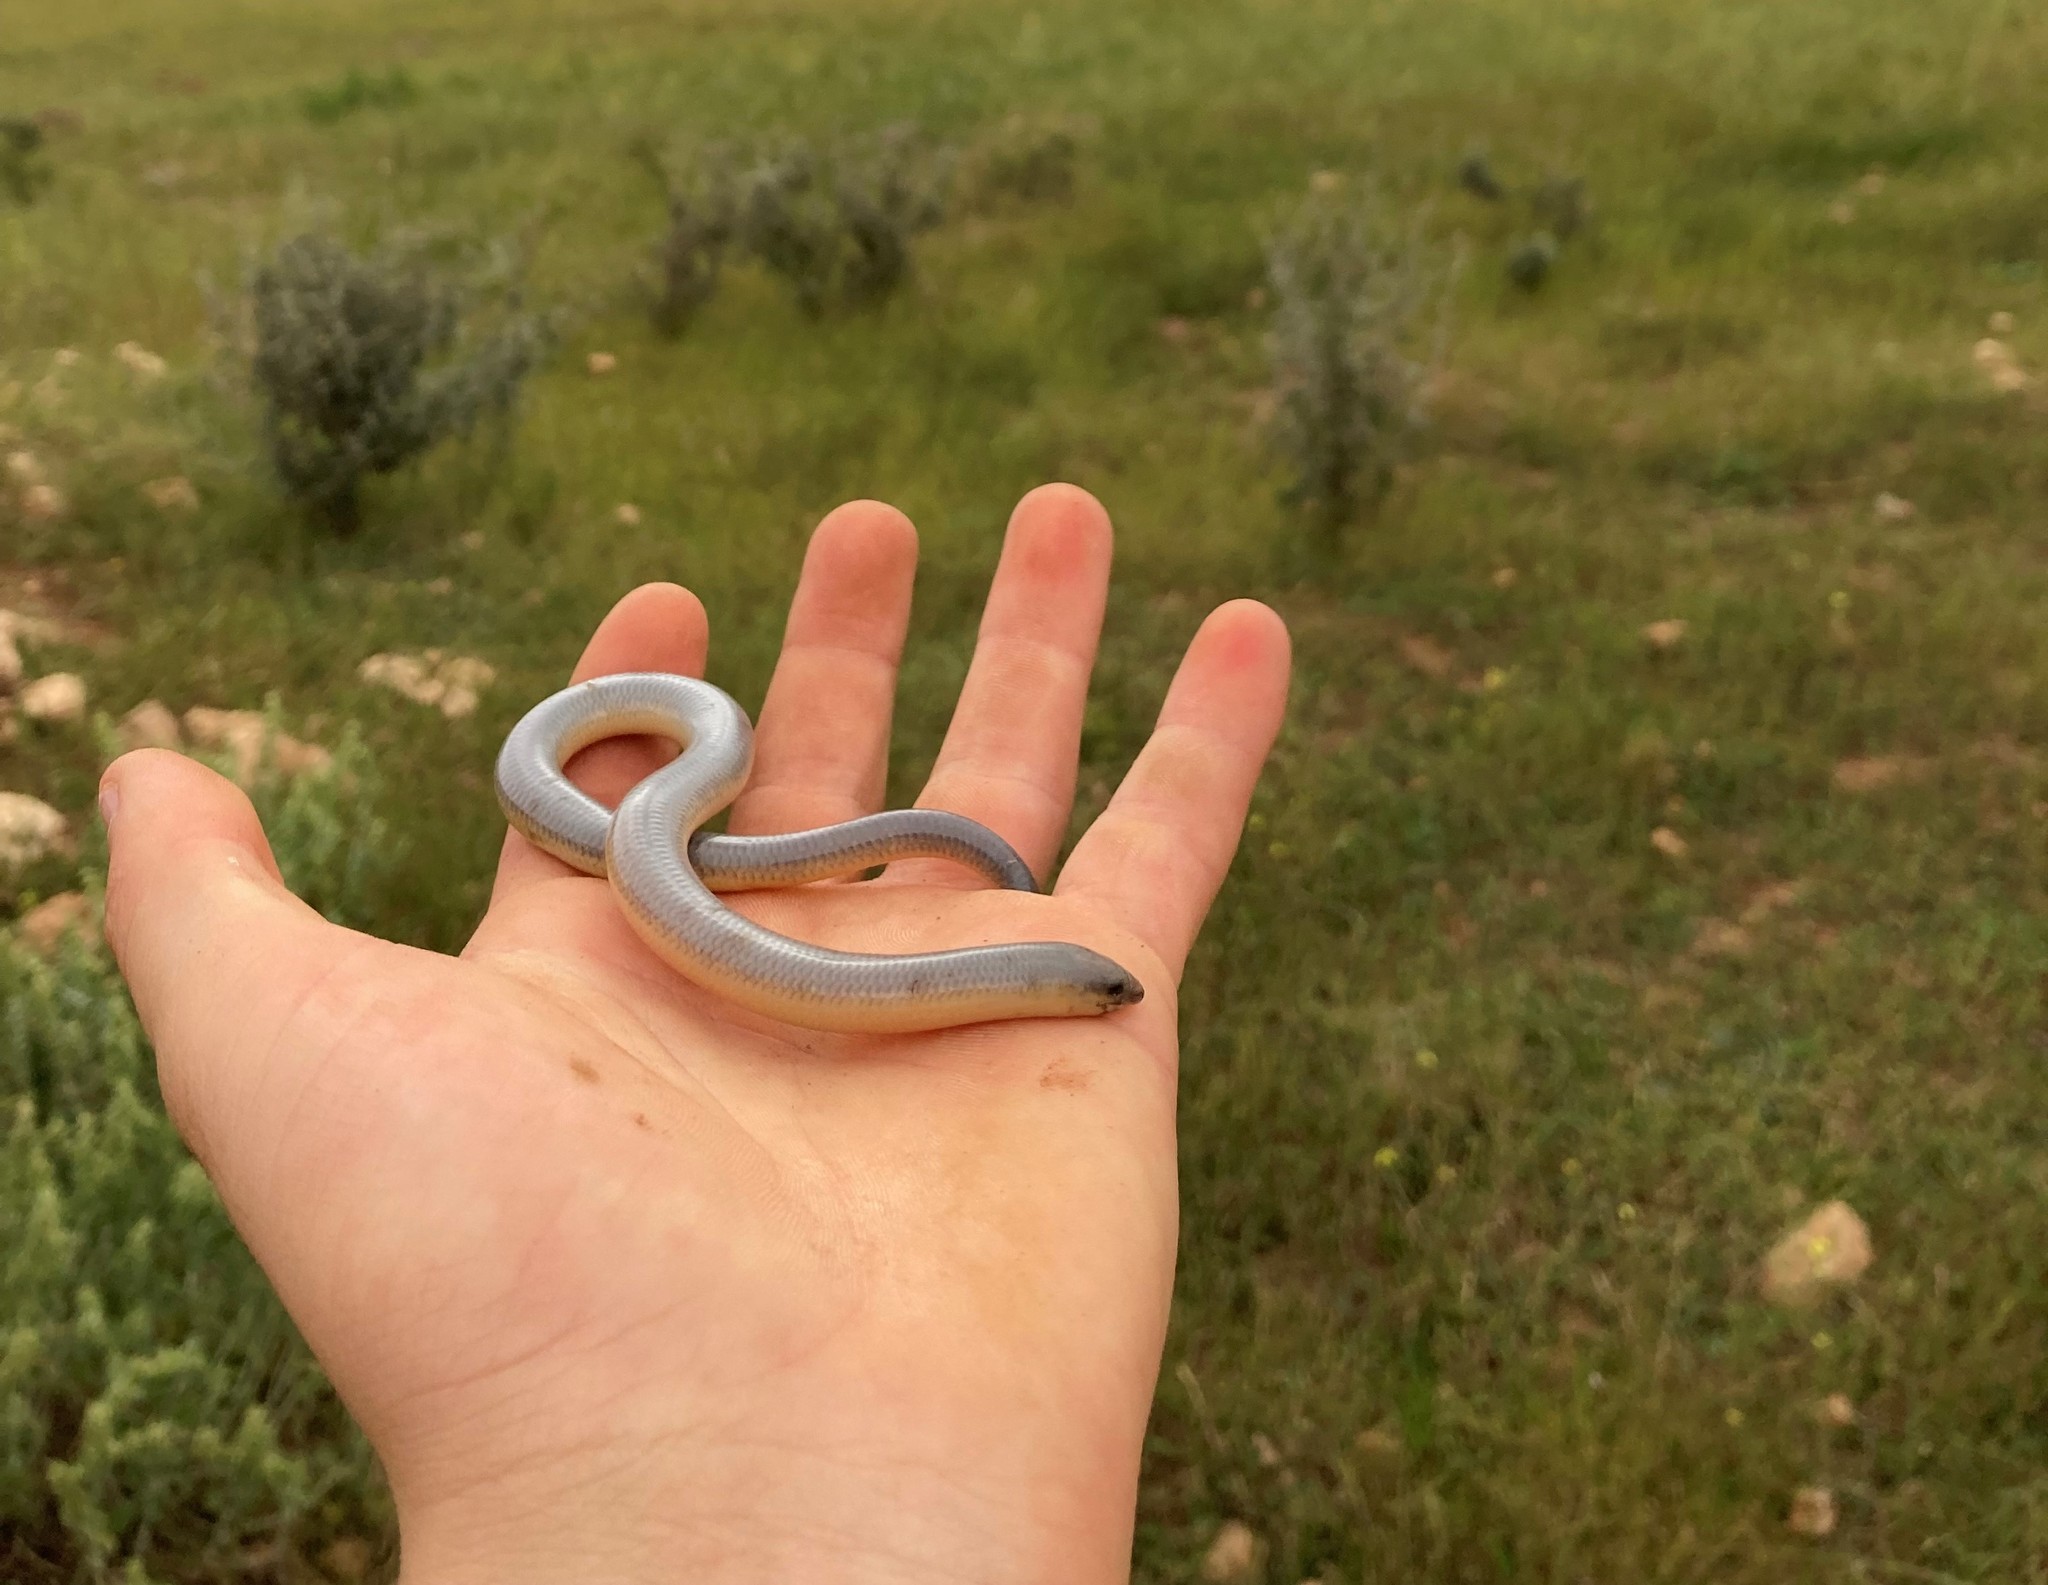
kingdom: Animalia
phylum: Chordata
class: Squamata
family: Scincidae
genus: Acontias
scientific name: Acontias meleagris
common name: Cape legless skink
